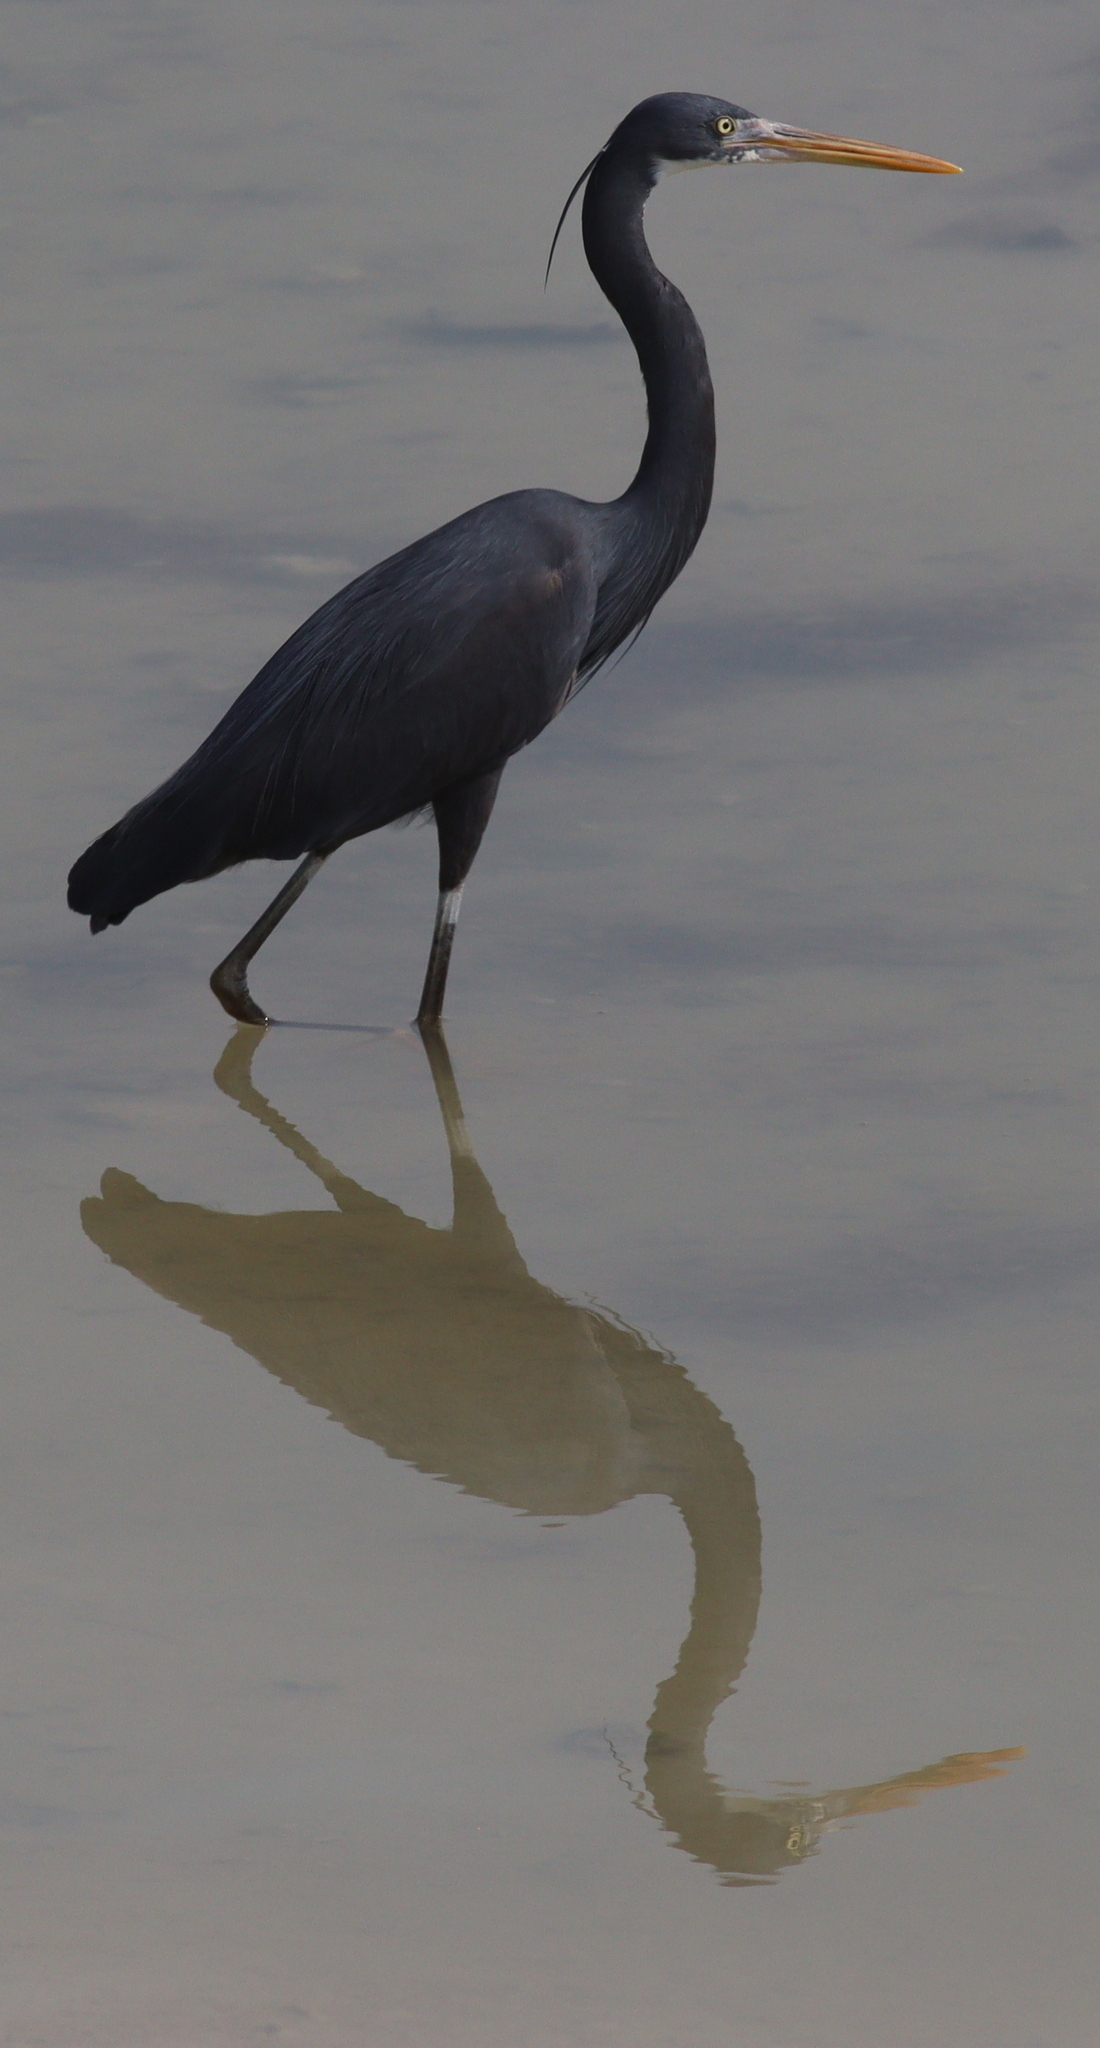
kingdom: Animalia
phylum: Chordata
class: Aves
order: Pelecaniformes
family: Ardeidae
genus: Egretta
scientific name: Egretta gularis
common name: Western reef-heron
